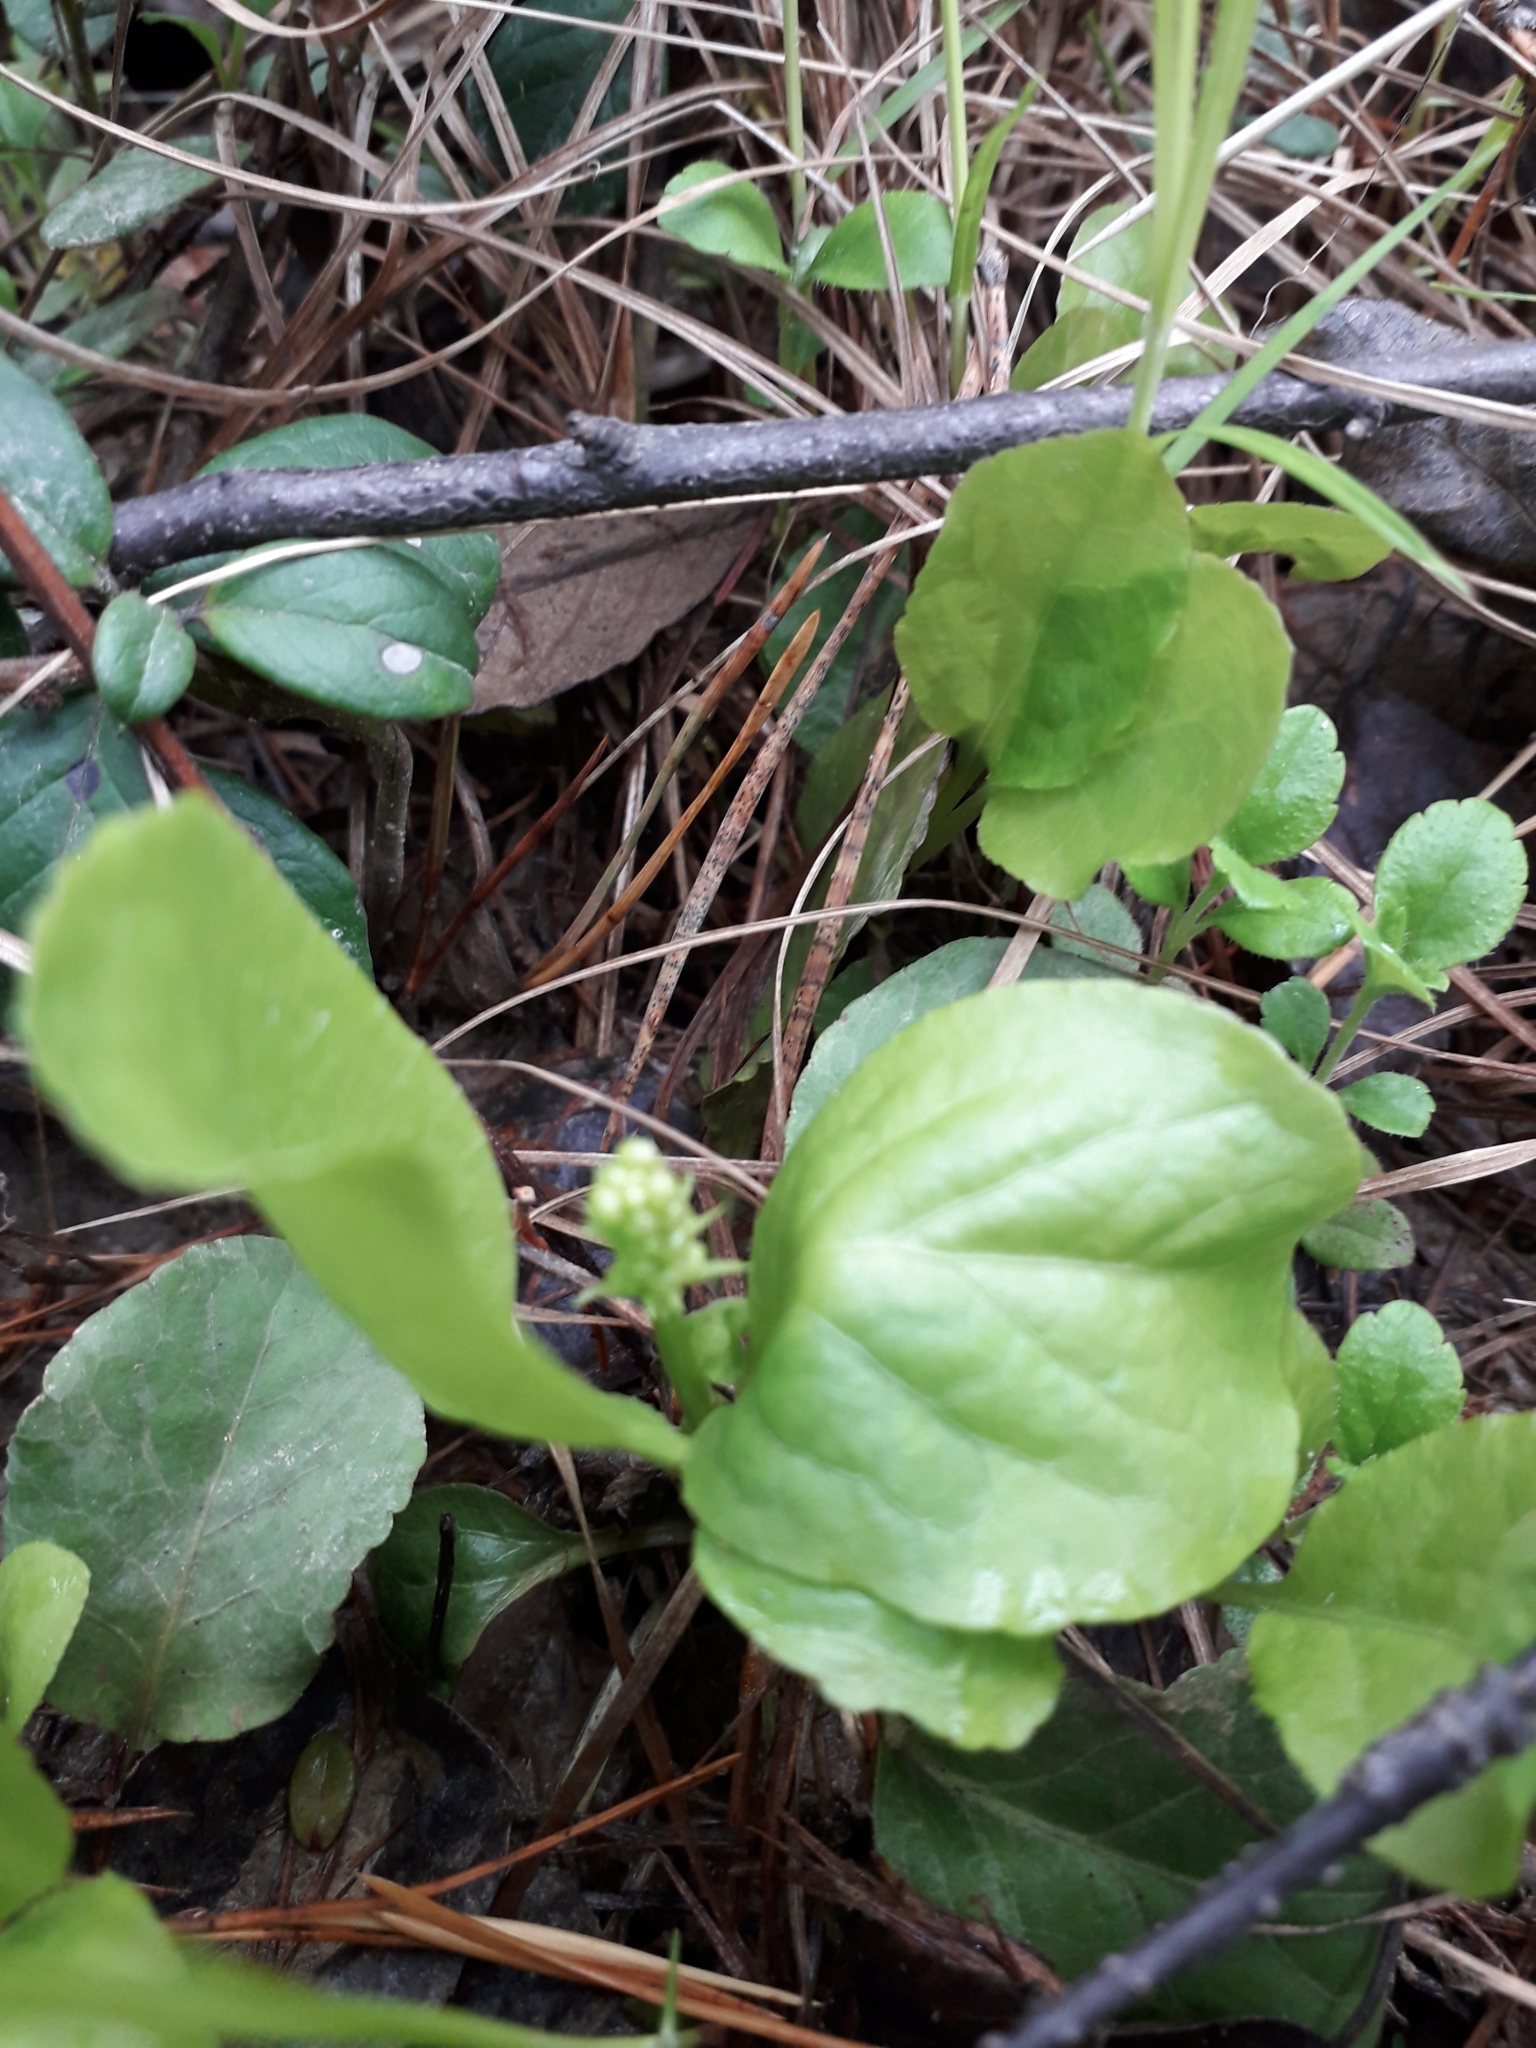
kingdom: Plantae
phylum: Tracheophyta
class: Magnoliopsida
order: Ericales
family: Ericaceae
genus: Pyrola
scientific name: Pyrola
